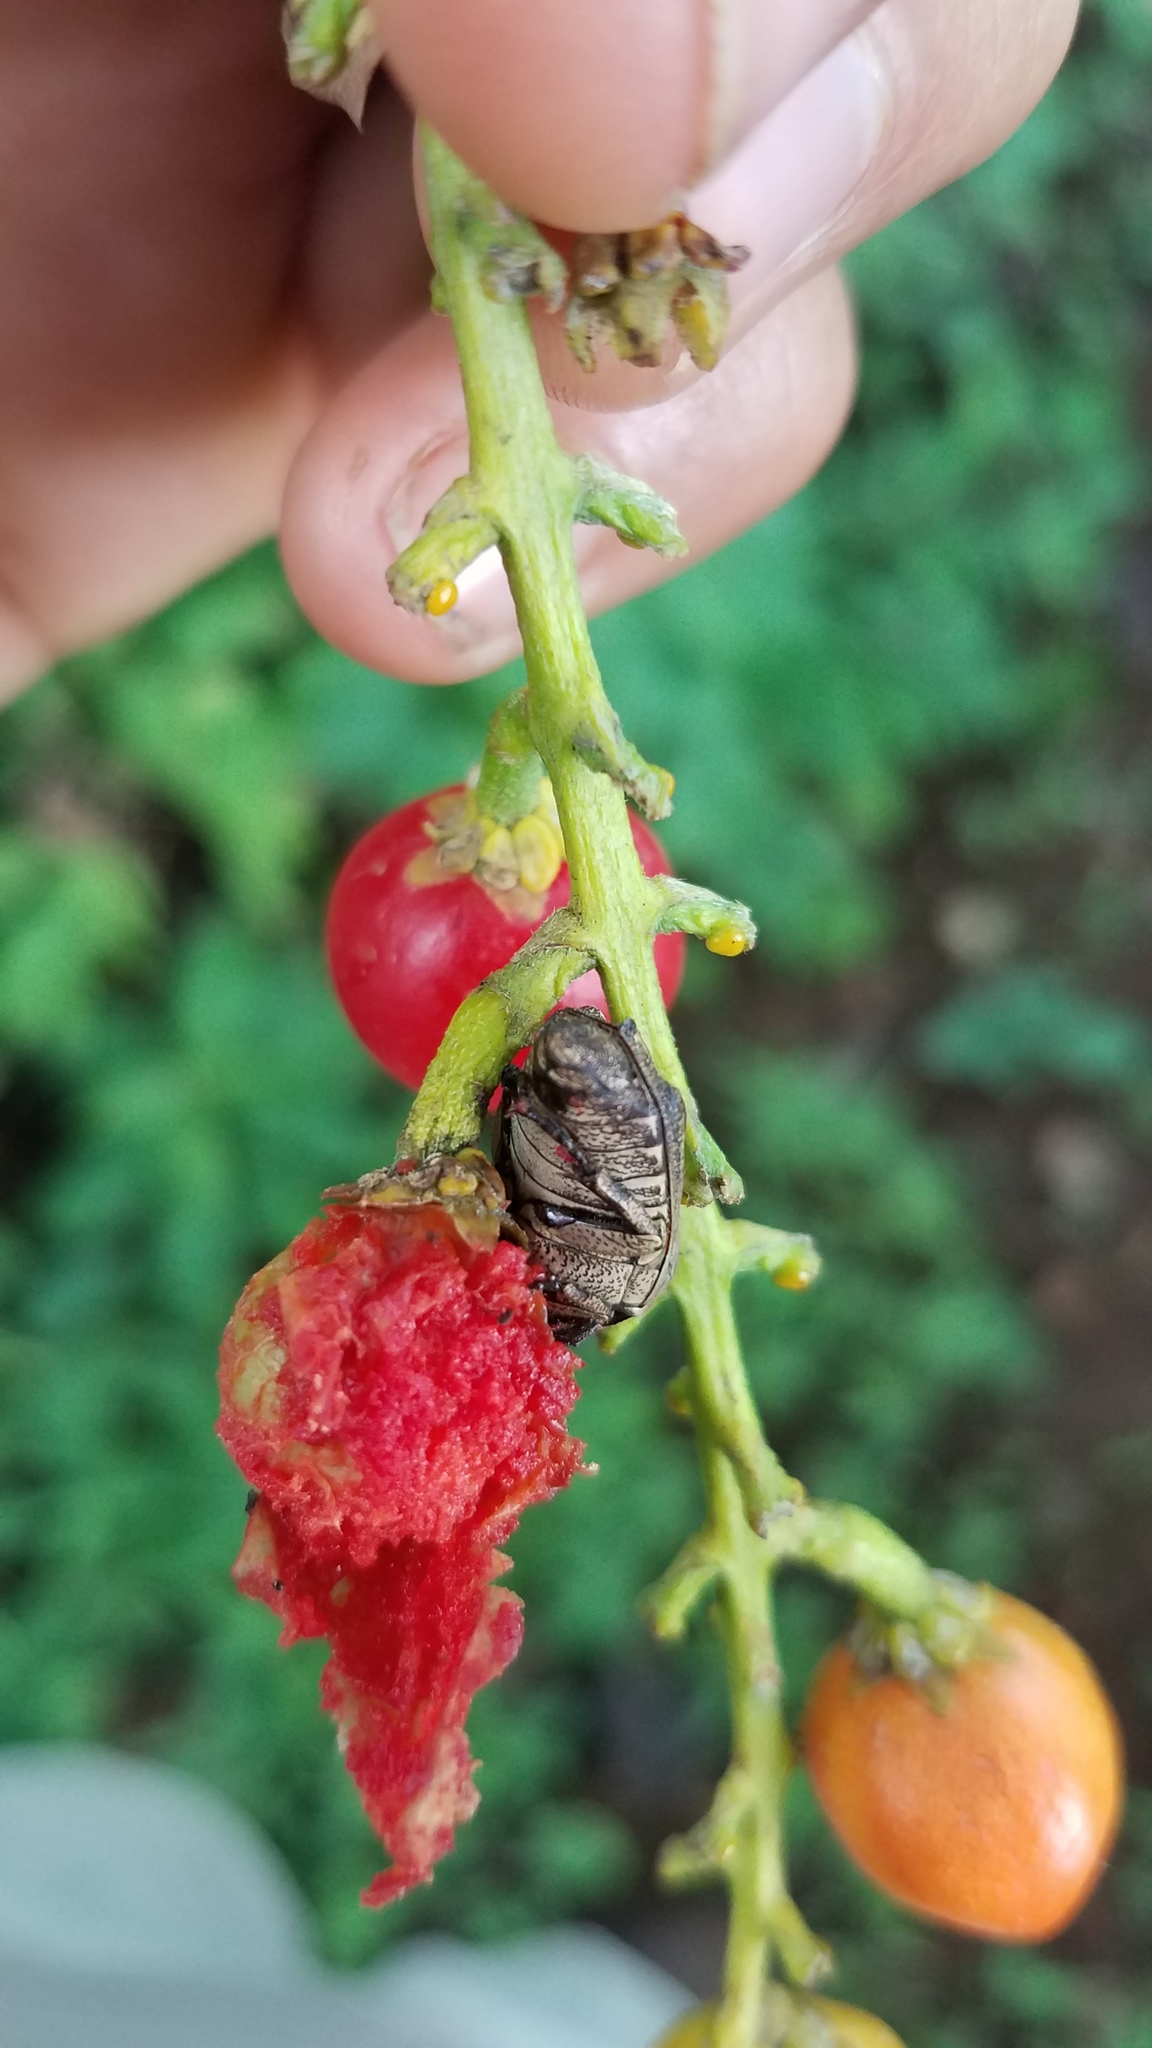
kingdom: Animalia
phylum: Arthropoda
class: Insecta
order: Coleoptera
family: Scarabaeidae
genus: Hoplopyga
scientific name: Hoplopyga liturata
